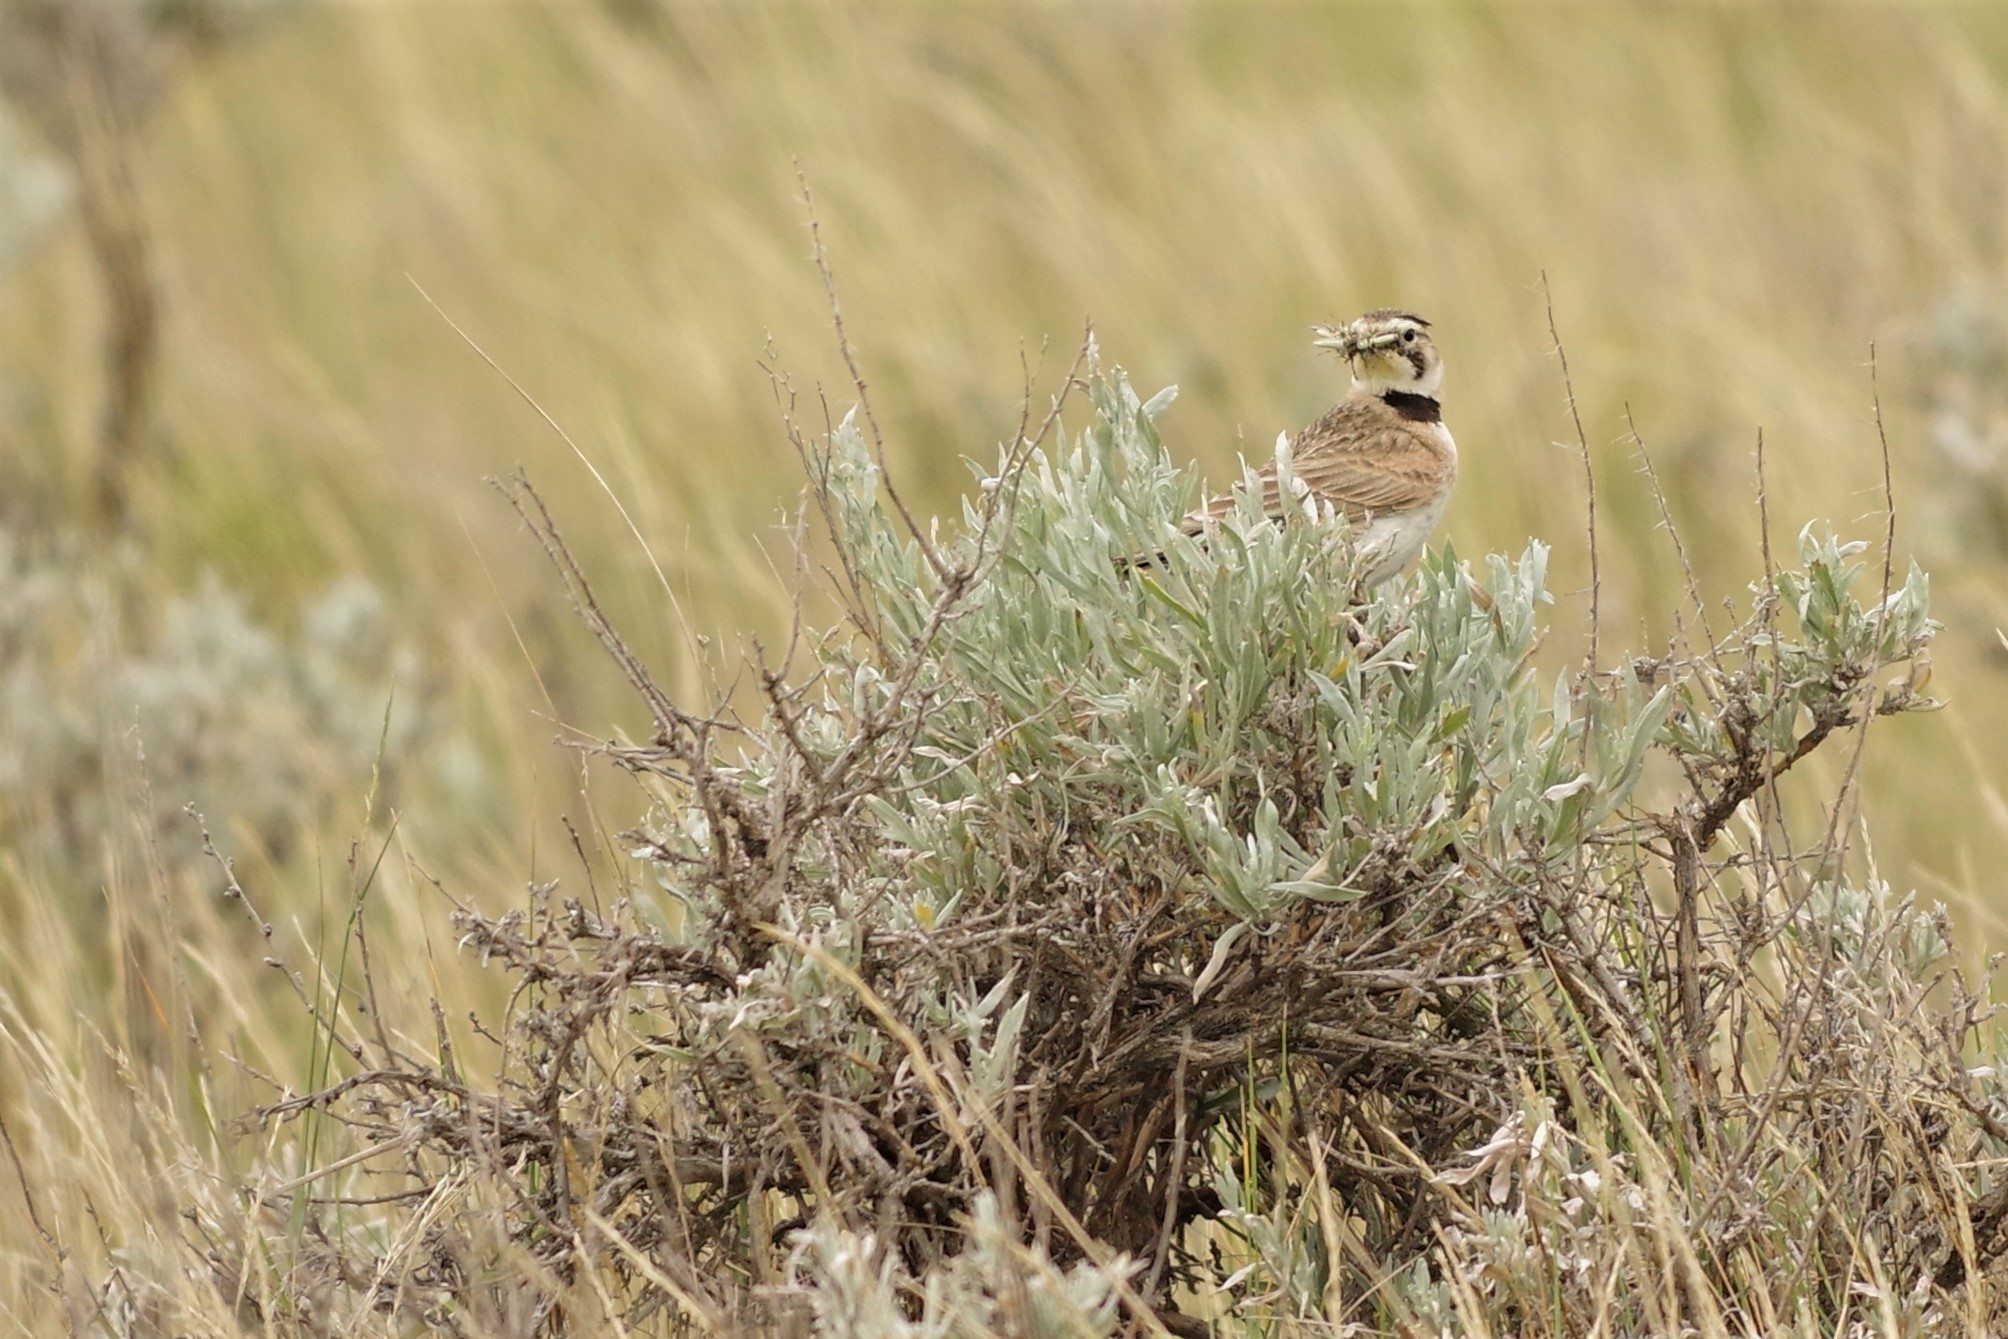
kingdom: Animalia
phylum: Chordata
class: Aves
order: Passeriformes
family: Alaudidae
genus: Eremophila
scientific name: Eremophila alpestris
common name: Horned lark
